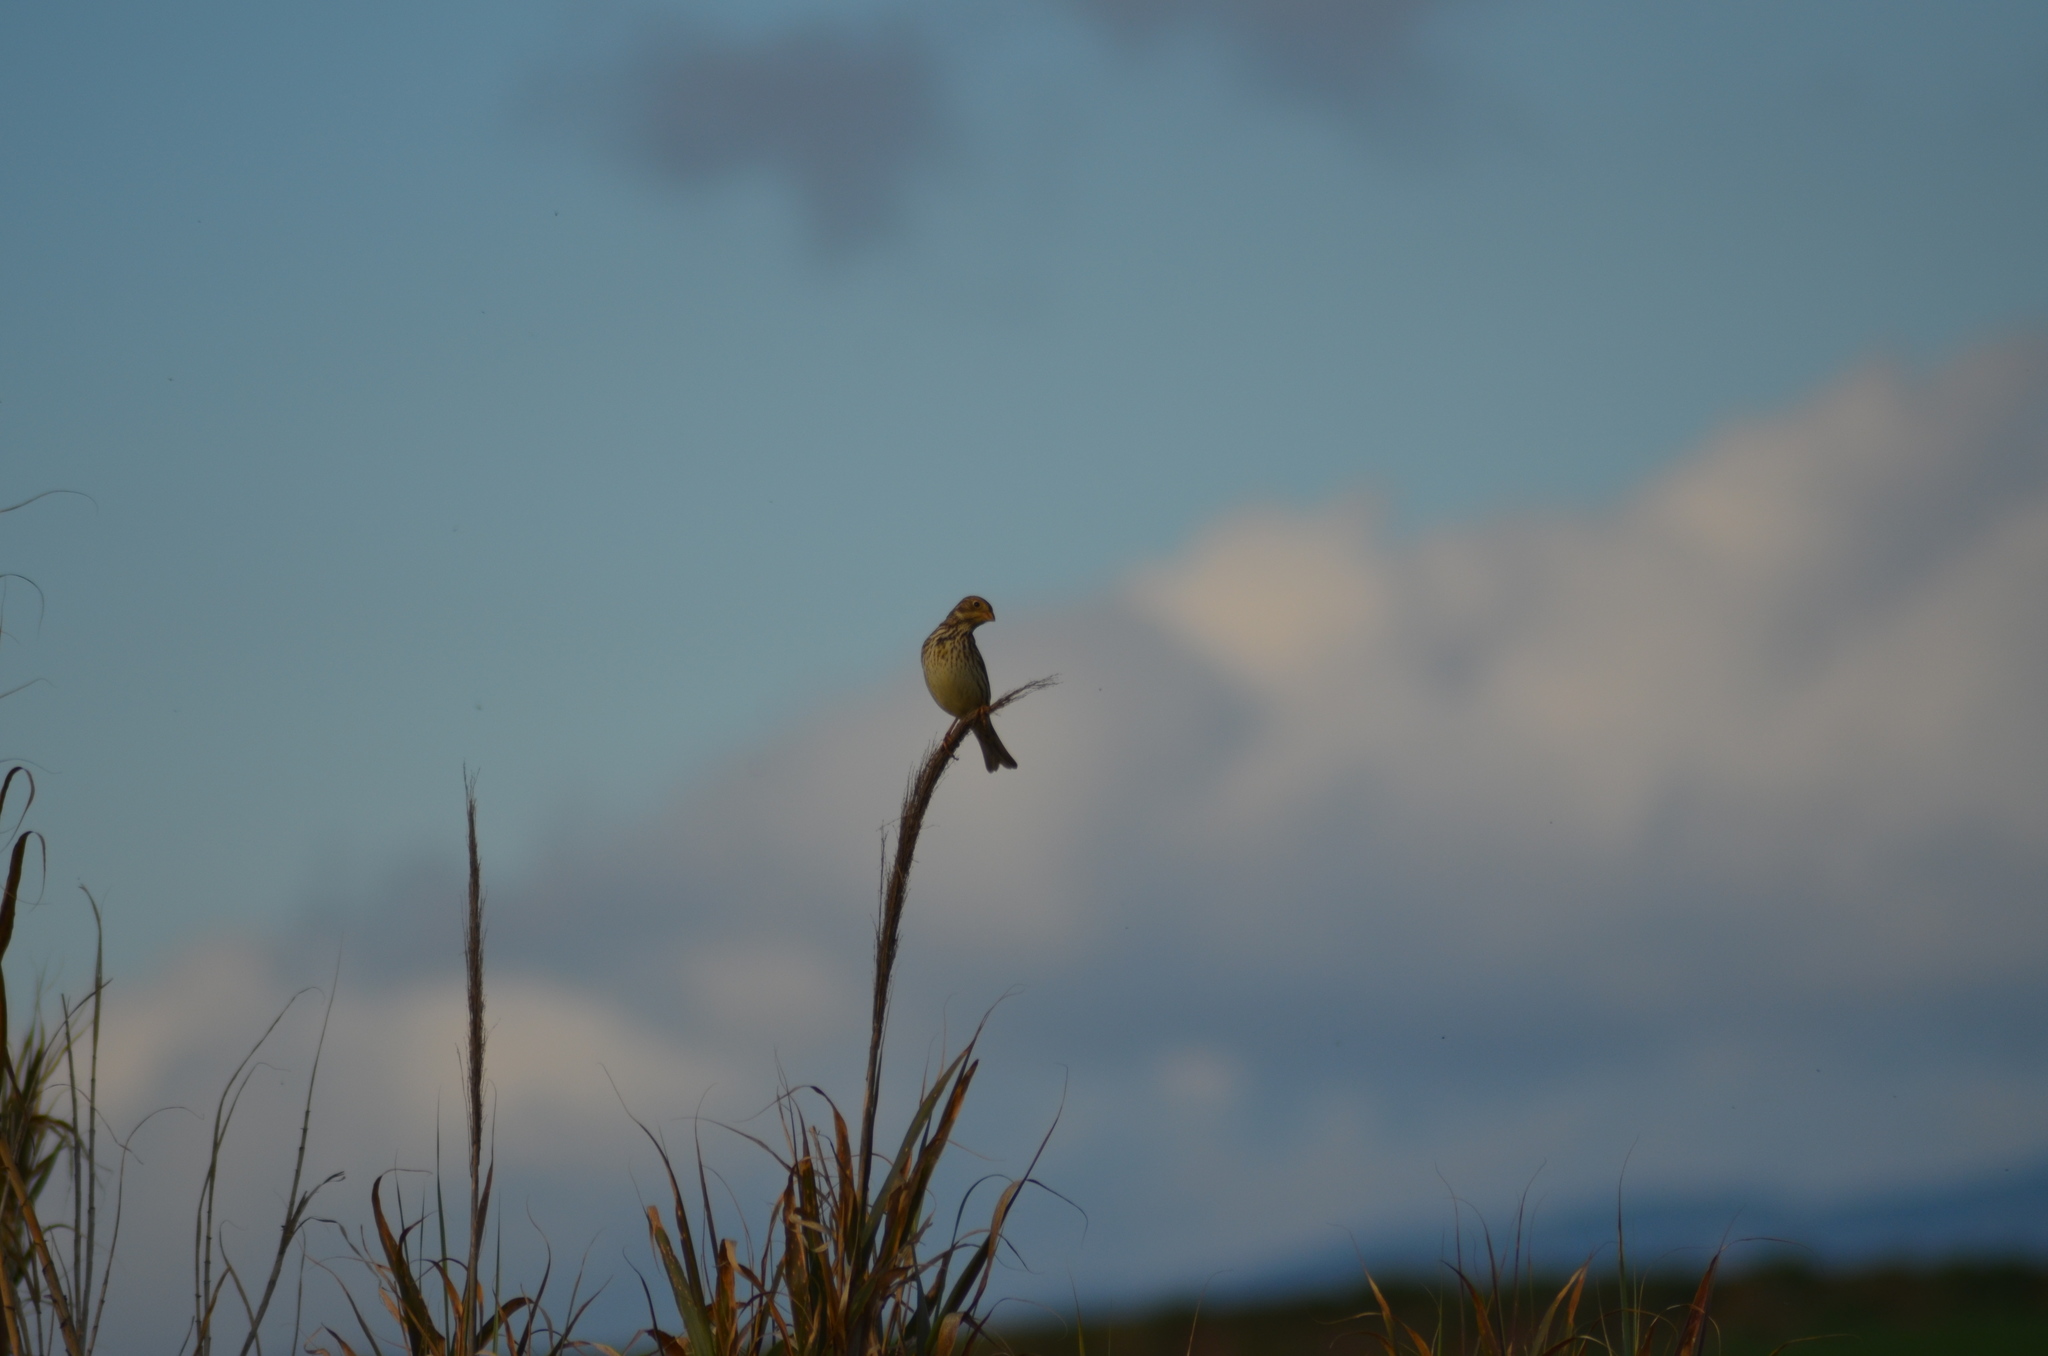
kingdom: Animalia
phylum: Chordata
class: Aves
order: Passeriformes
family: Emberizidae
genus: Emberiza
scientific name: Emberiza calandra
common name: Corn bunting
